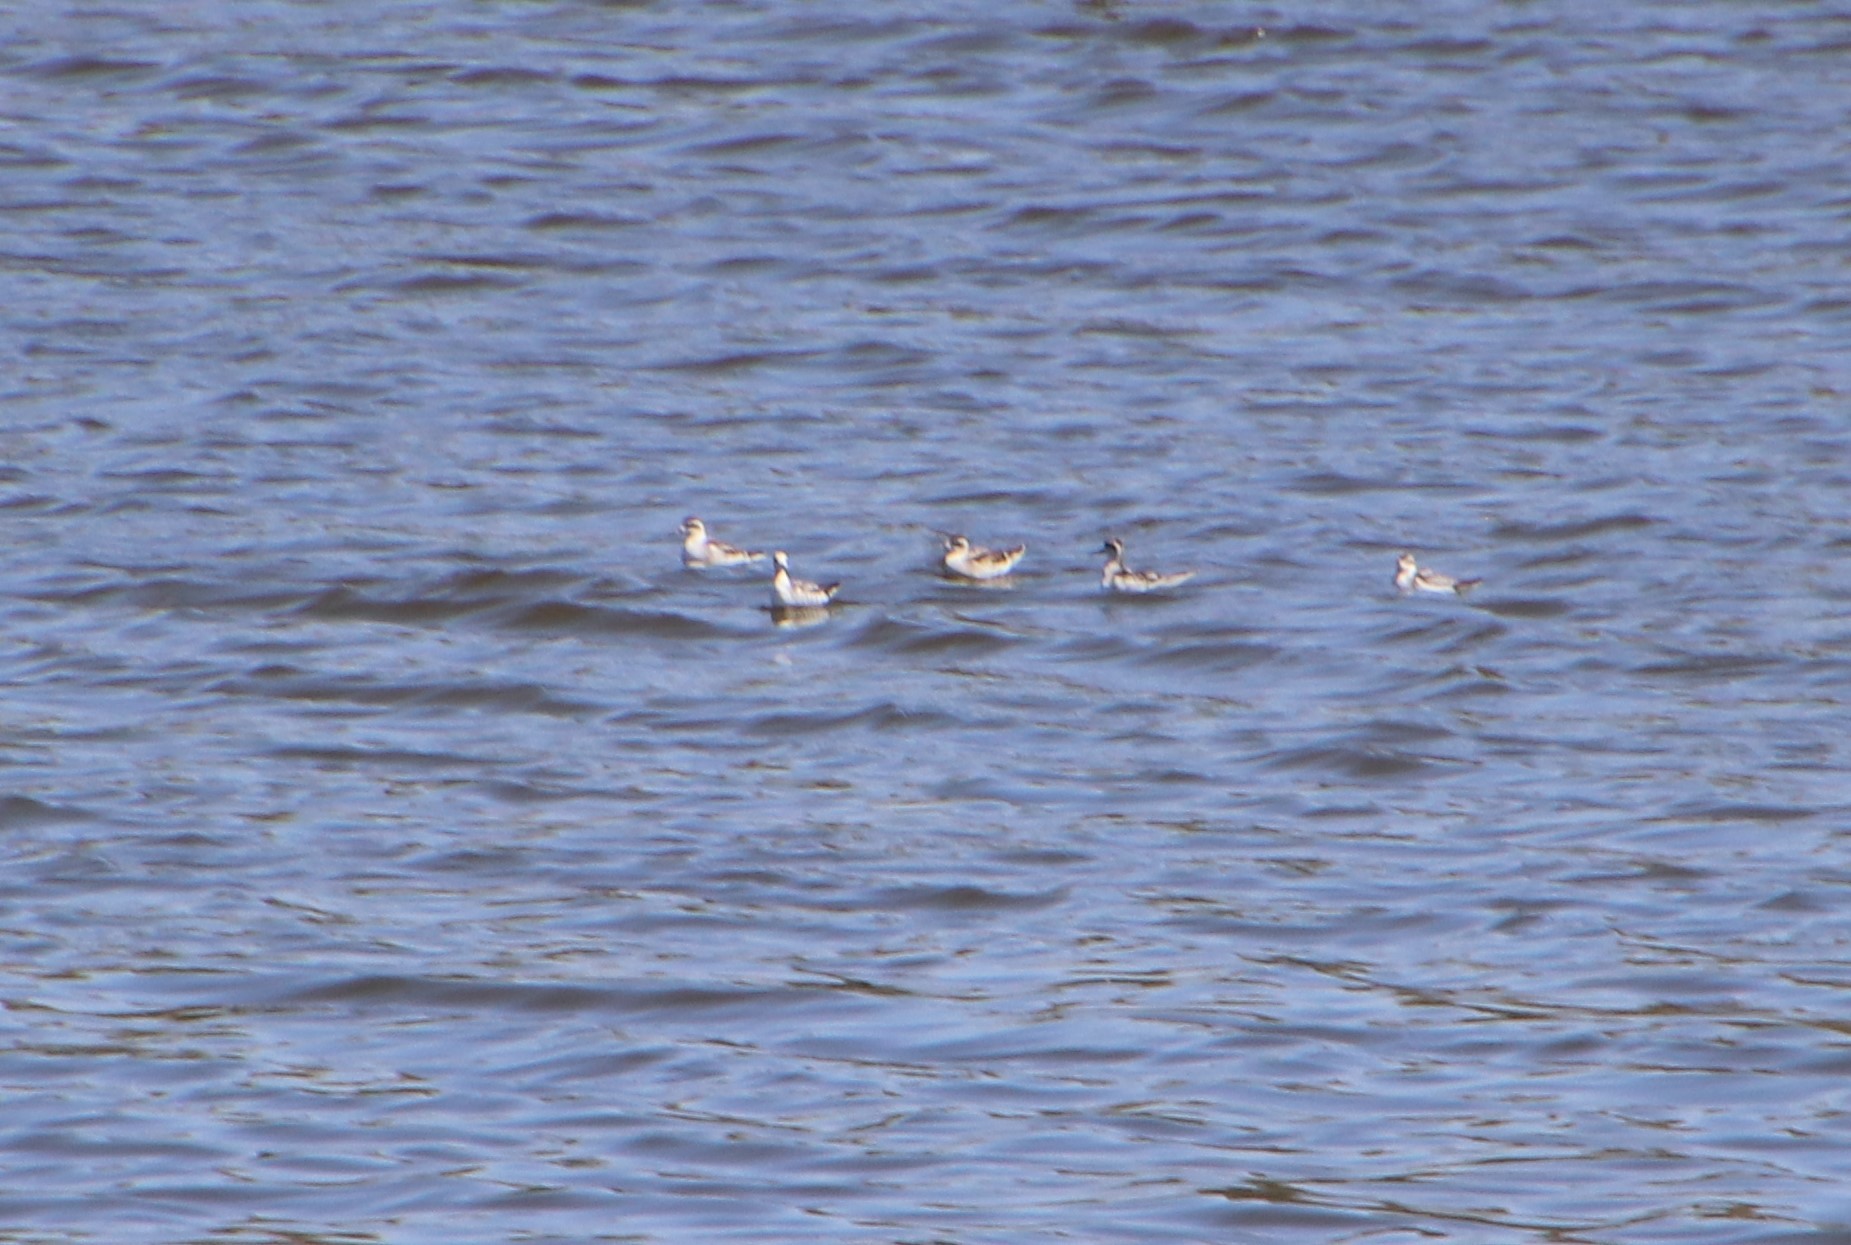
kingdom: Animalia
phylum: Chordata
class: Aves
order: Charadriiformes
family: Scolopacidae
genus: Phalaropus
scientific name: Phalaropus lobatus
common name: Red-necked phalarope
